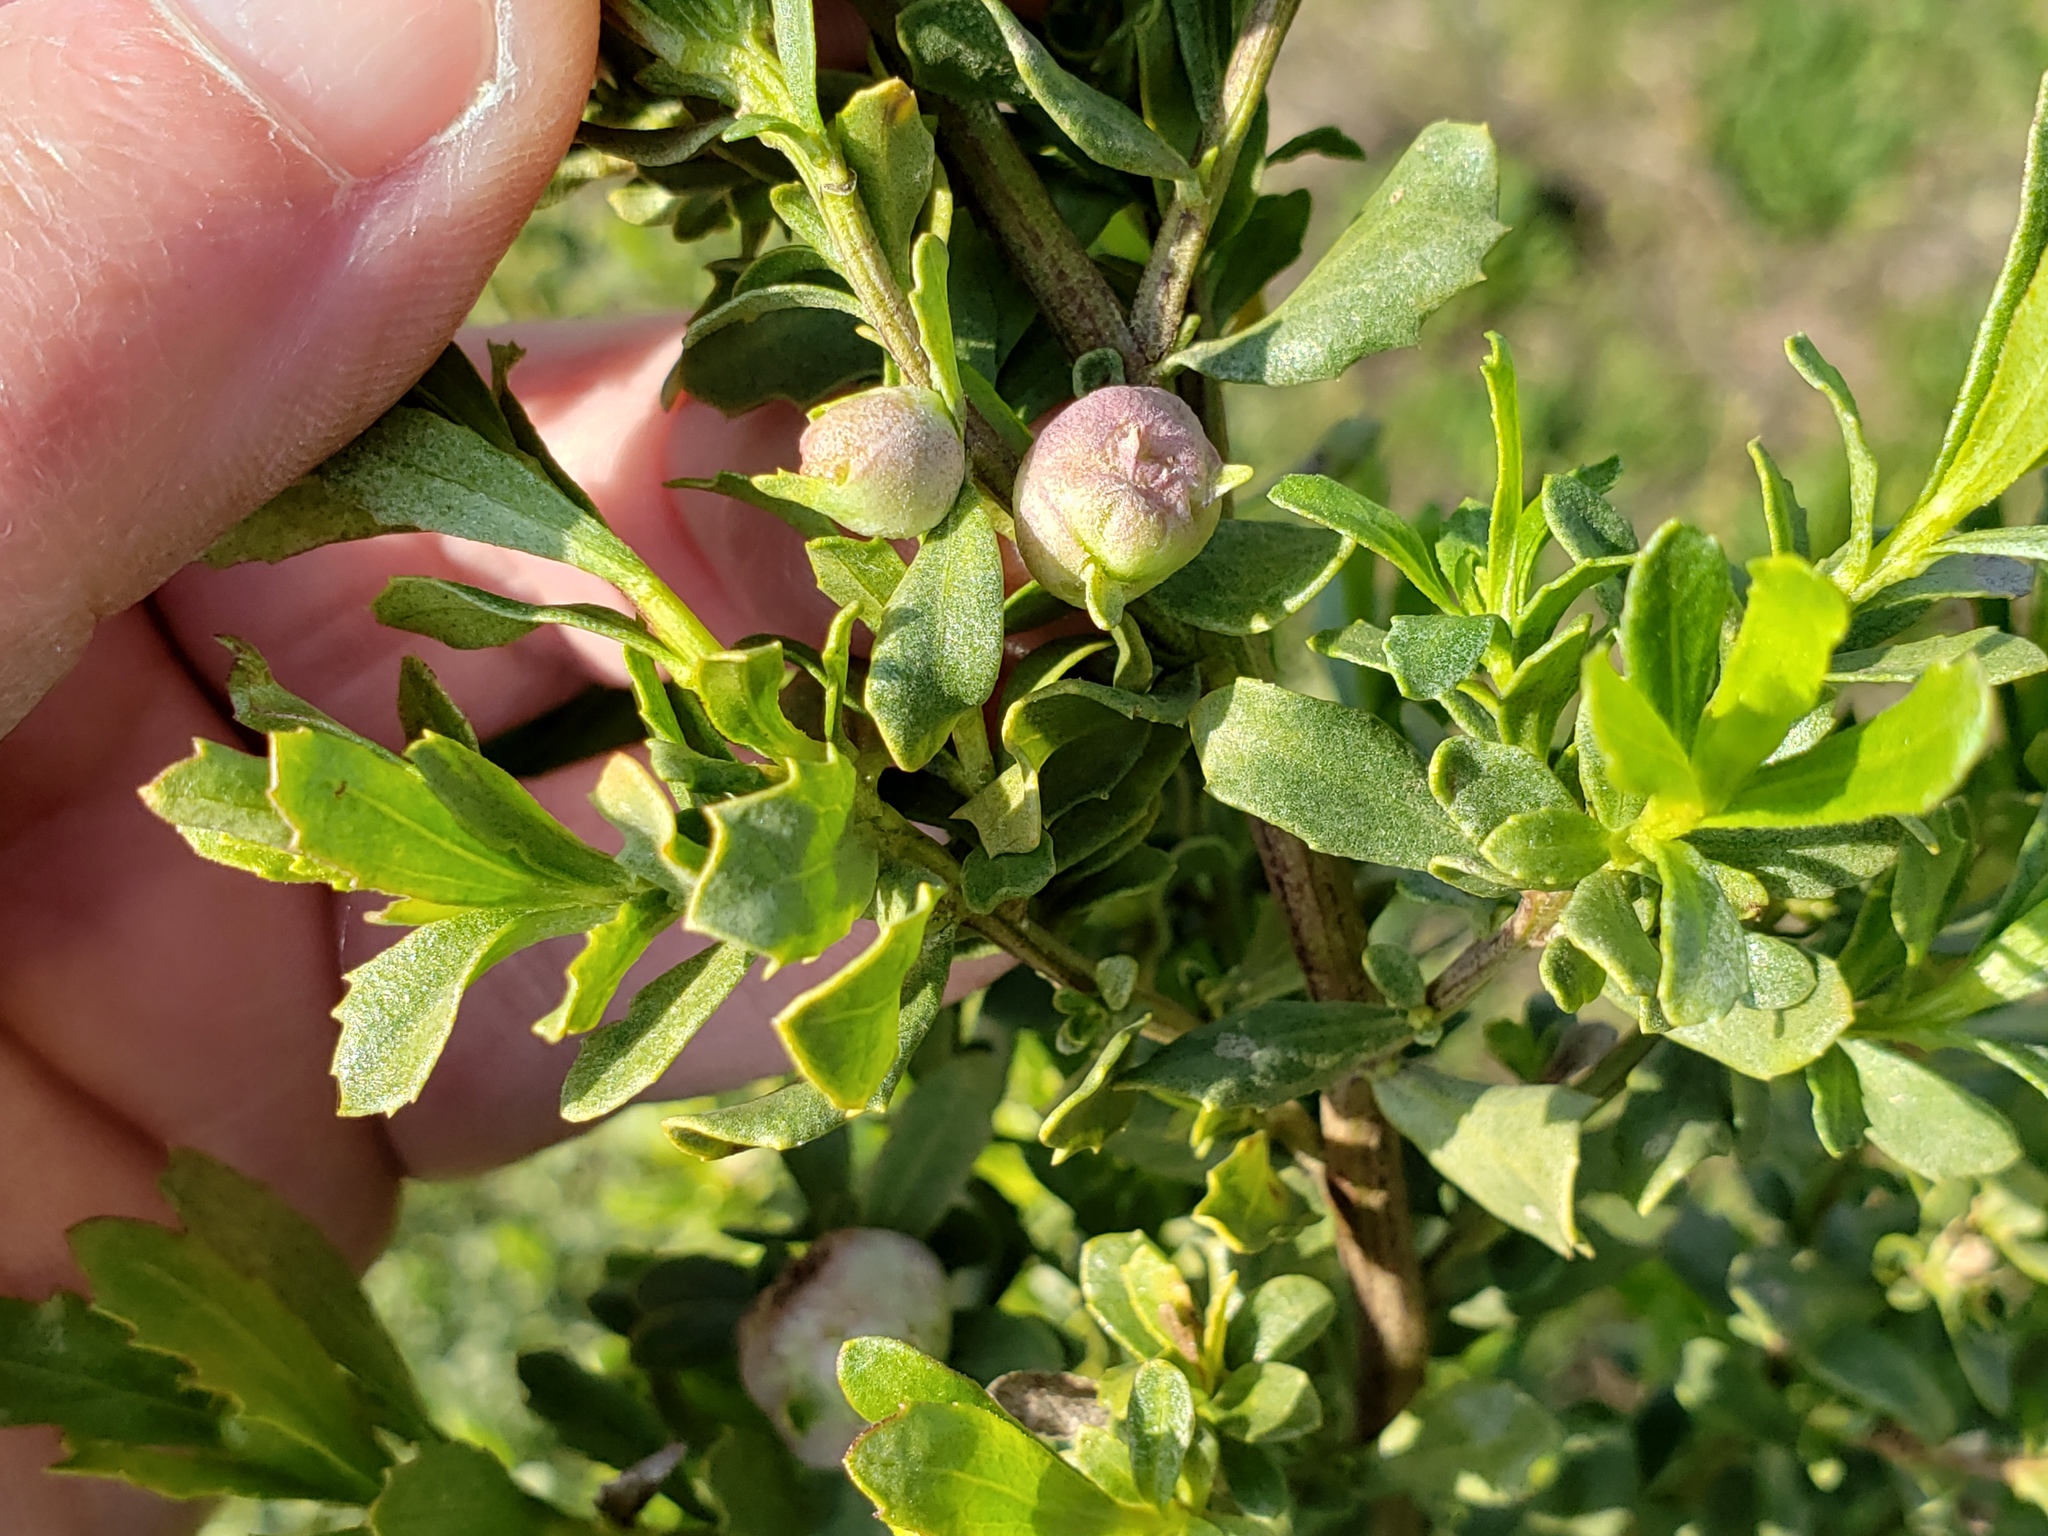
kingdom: Animalia
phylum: Arthropoda
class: Insecta
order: Diptera
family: Cecidomyiidae
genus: Rhopalomyia
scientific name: Rhopalomyia californica
